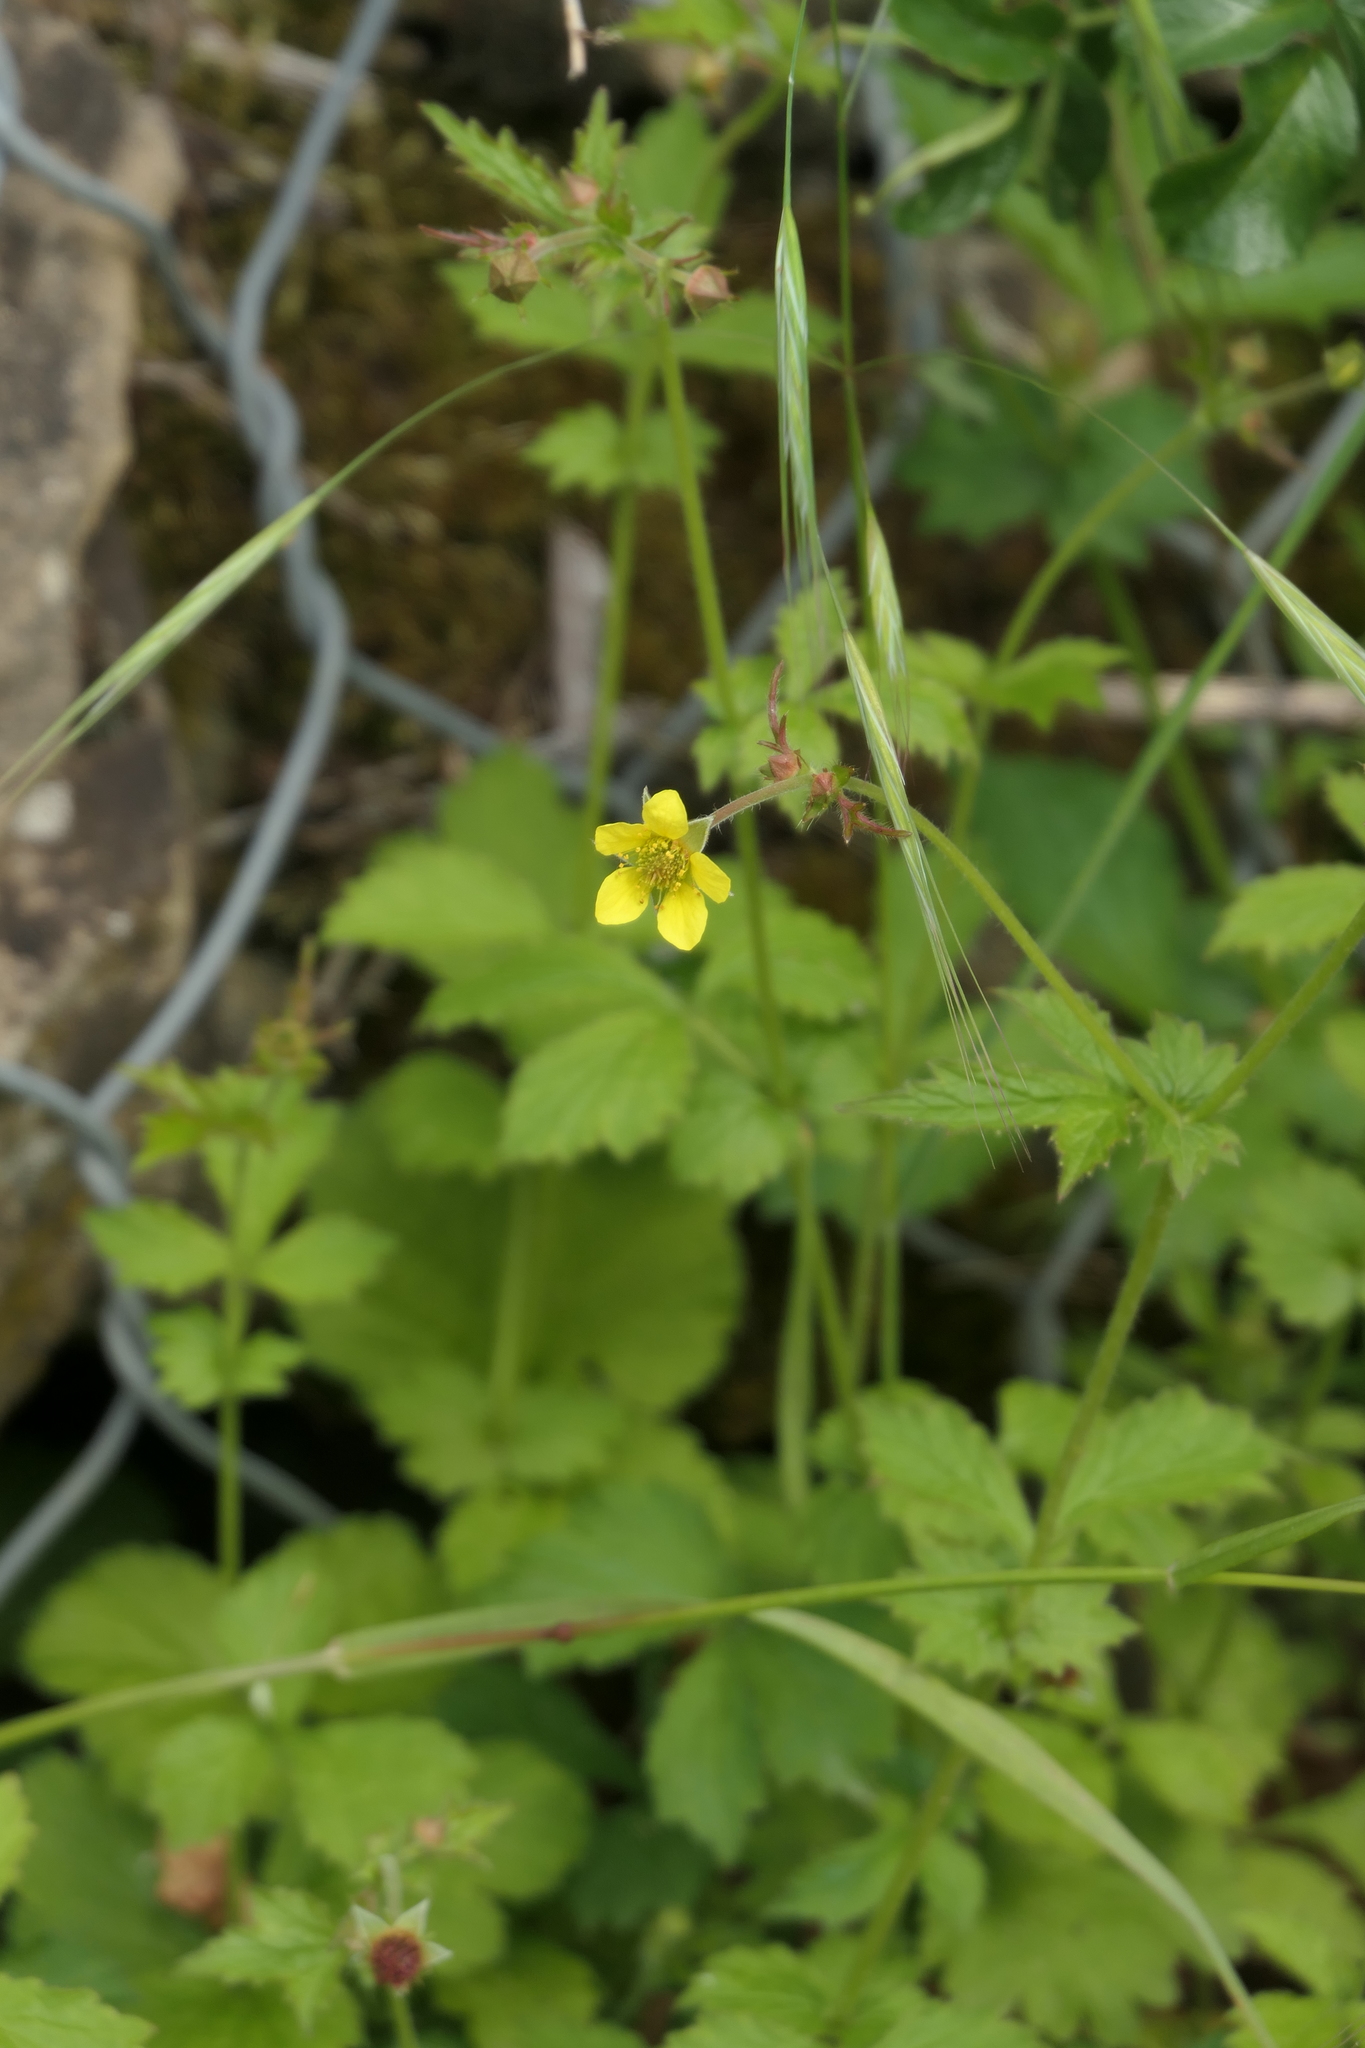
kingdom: Plantae
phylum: Tracheophyta
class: Magnoliopsida
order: Rosales
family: Rosaceae
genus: Geum
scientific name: Geum urbanum
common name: Wood avens
